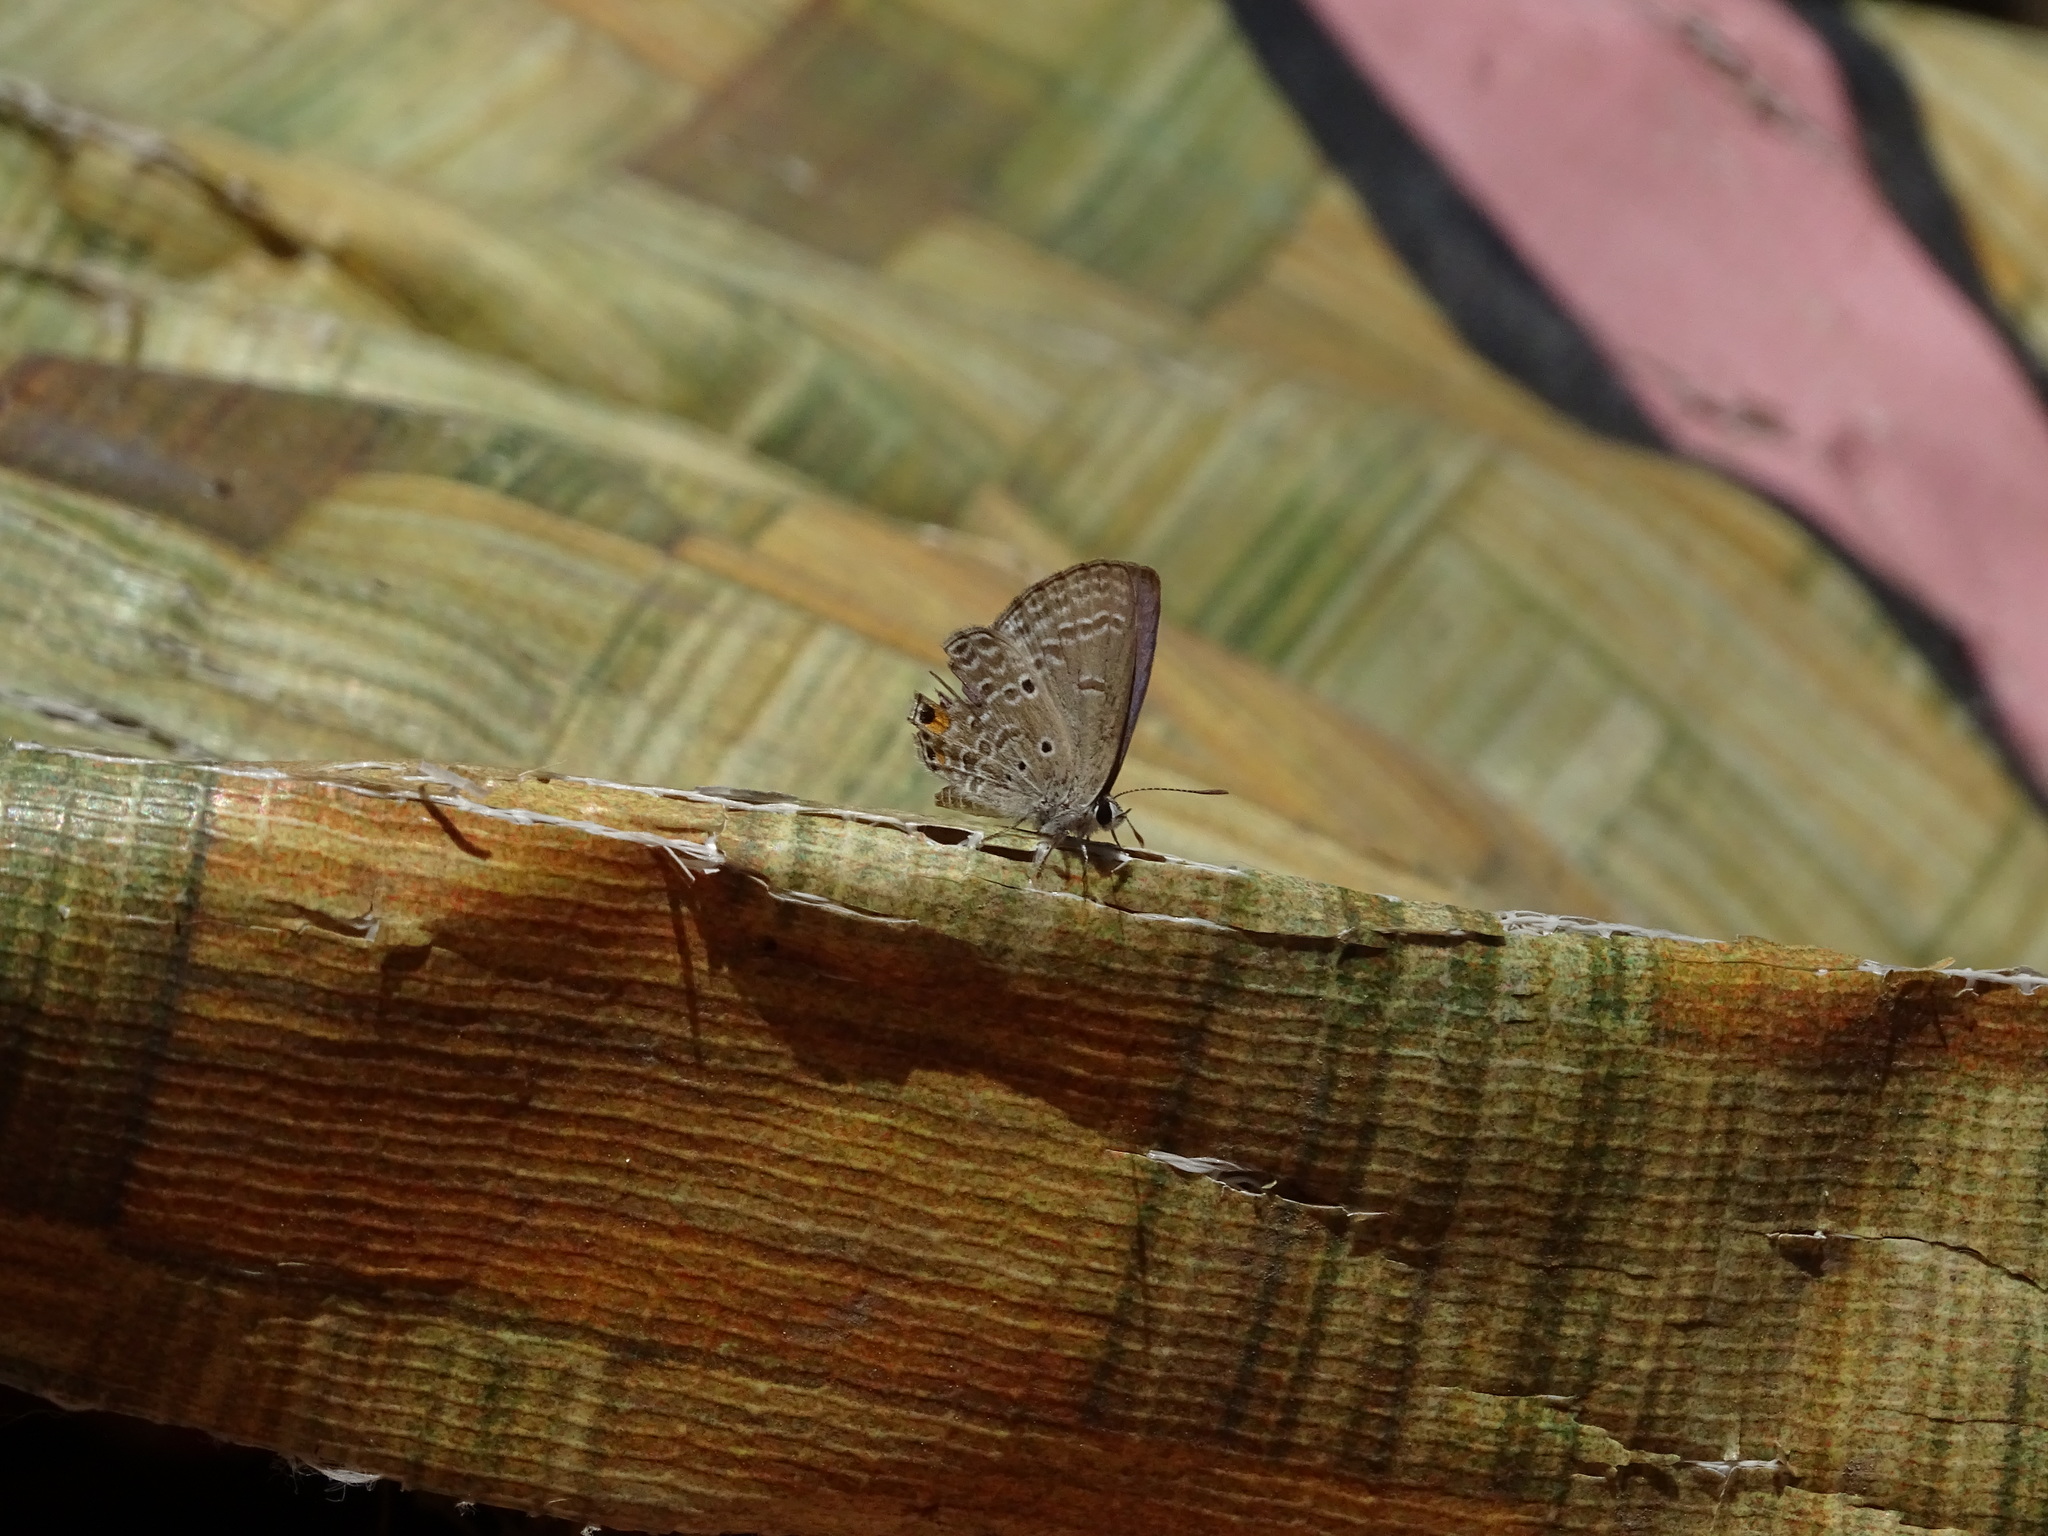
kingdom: Animalia
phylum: Arthropoda
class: Insecta
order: Lepidoptera
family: Lycaenidae
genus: Luthrodes
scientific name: Luthrodes pandava
